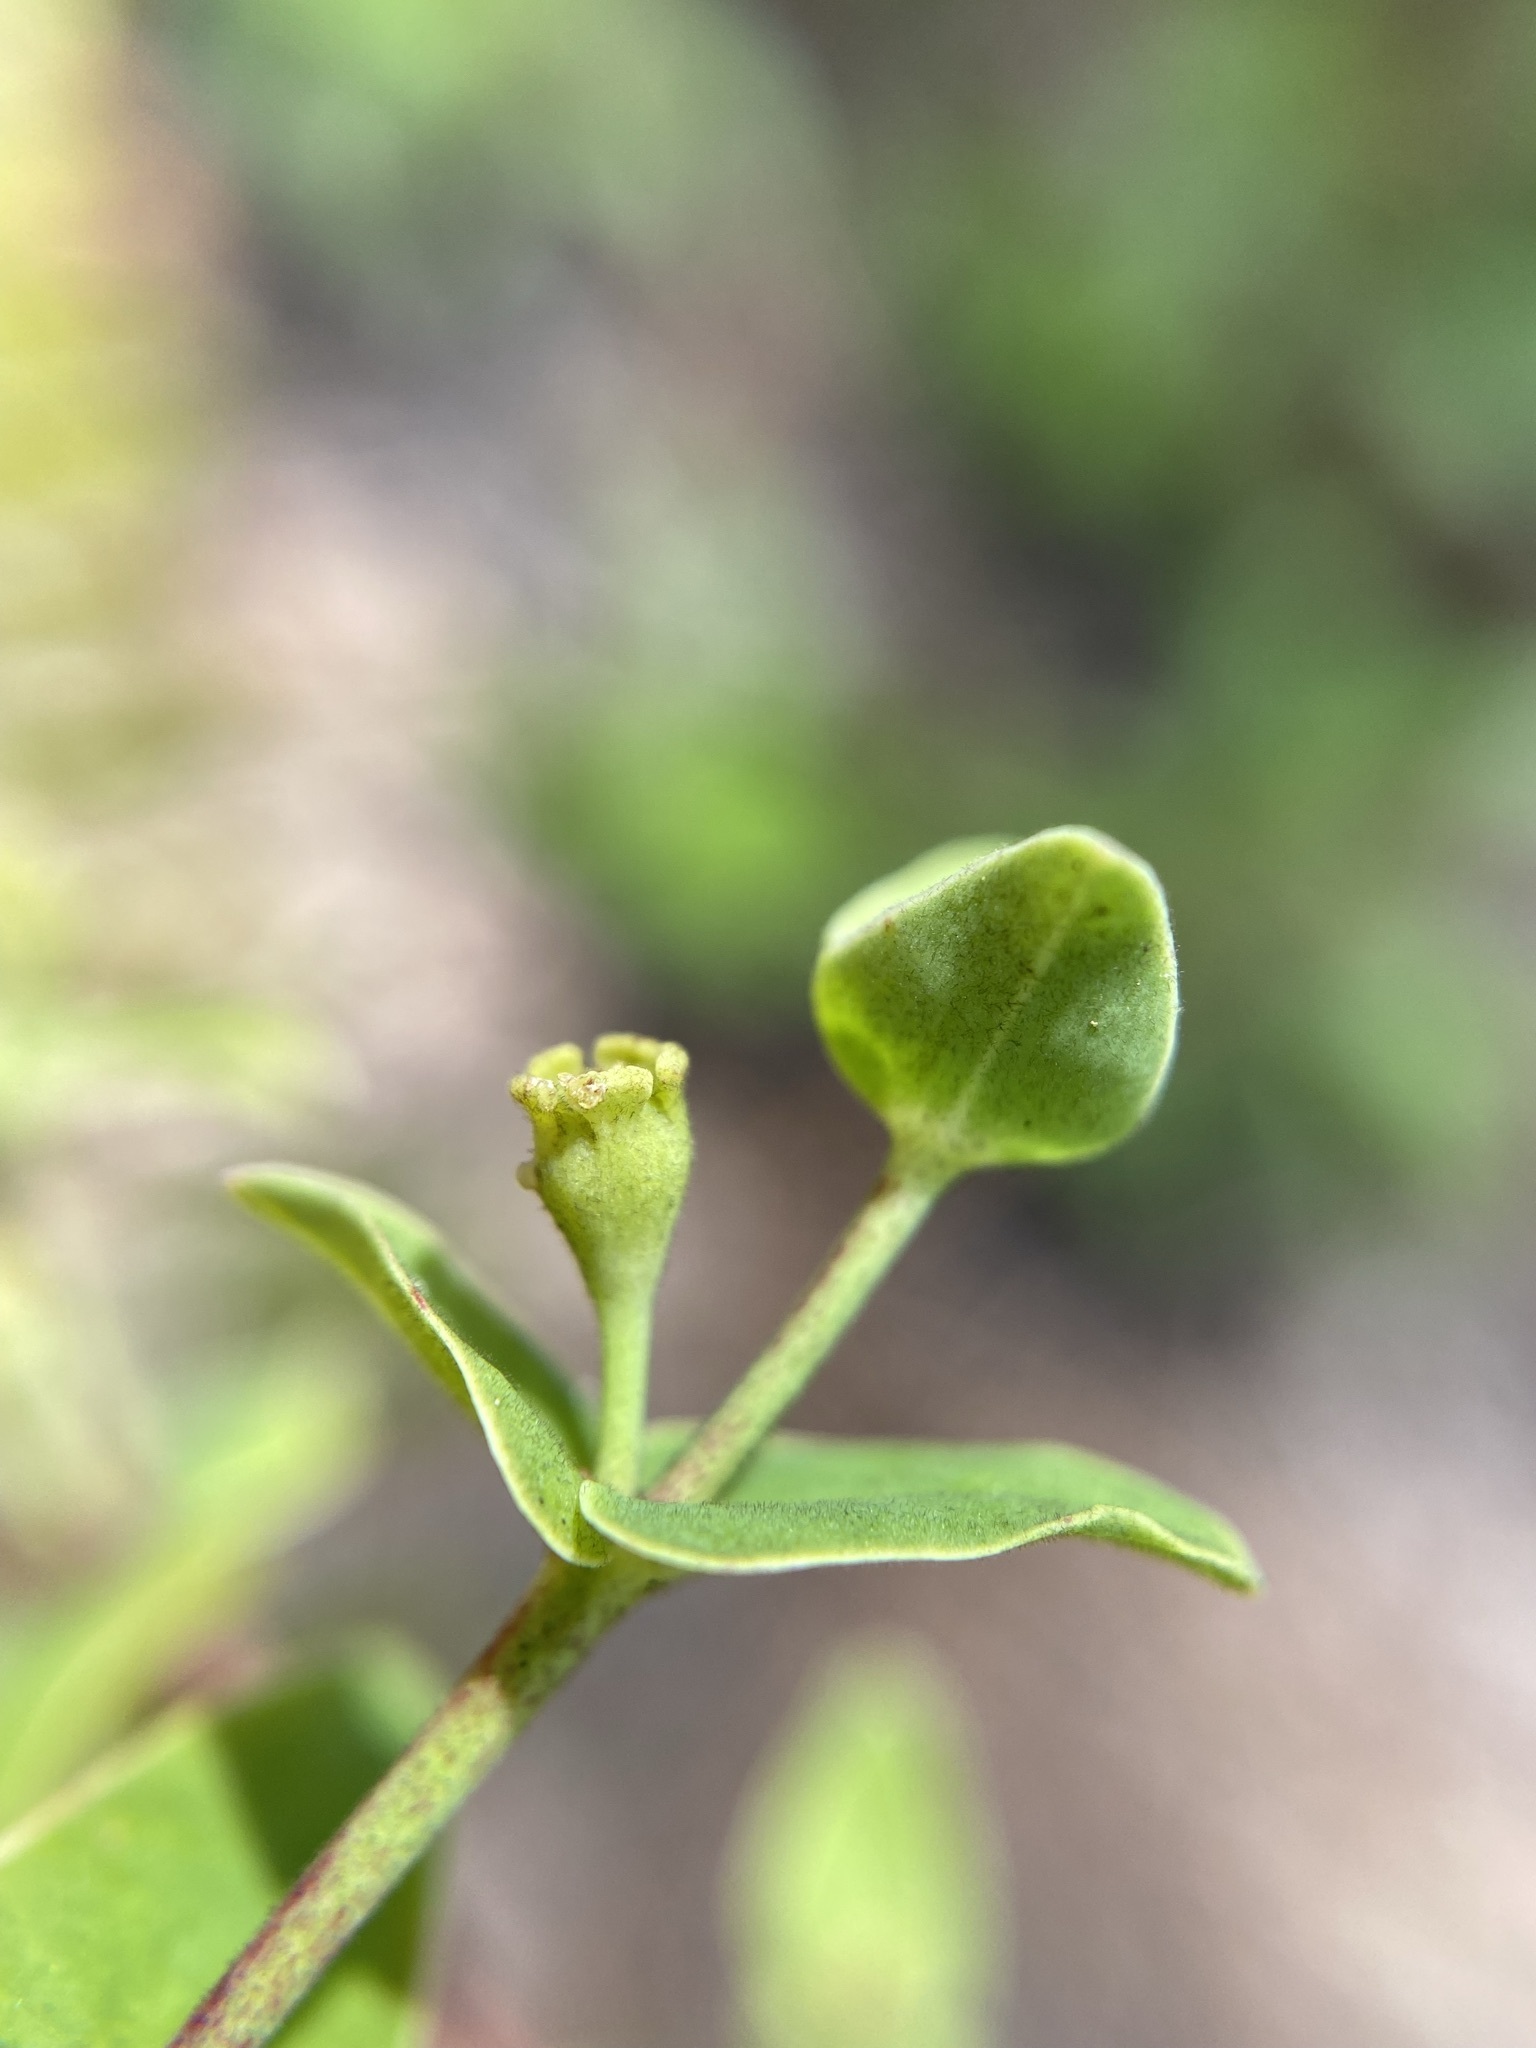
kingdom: Plantae
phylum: Tracheophyta
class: Magnoliopsida
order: Malpighiales
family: Euphorbiaceae
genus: Euphorbia
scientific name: Euphorbia floridana
